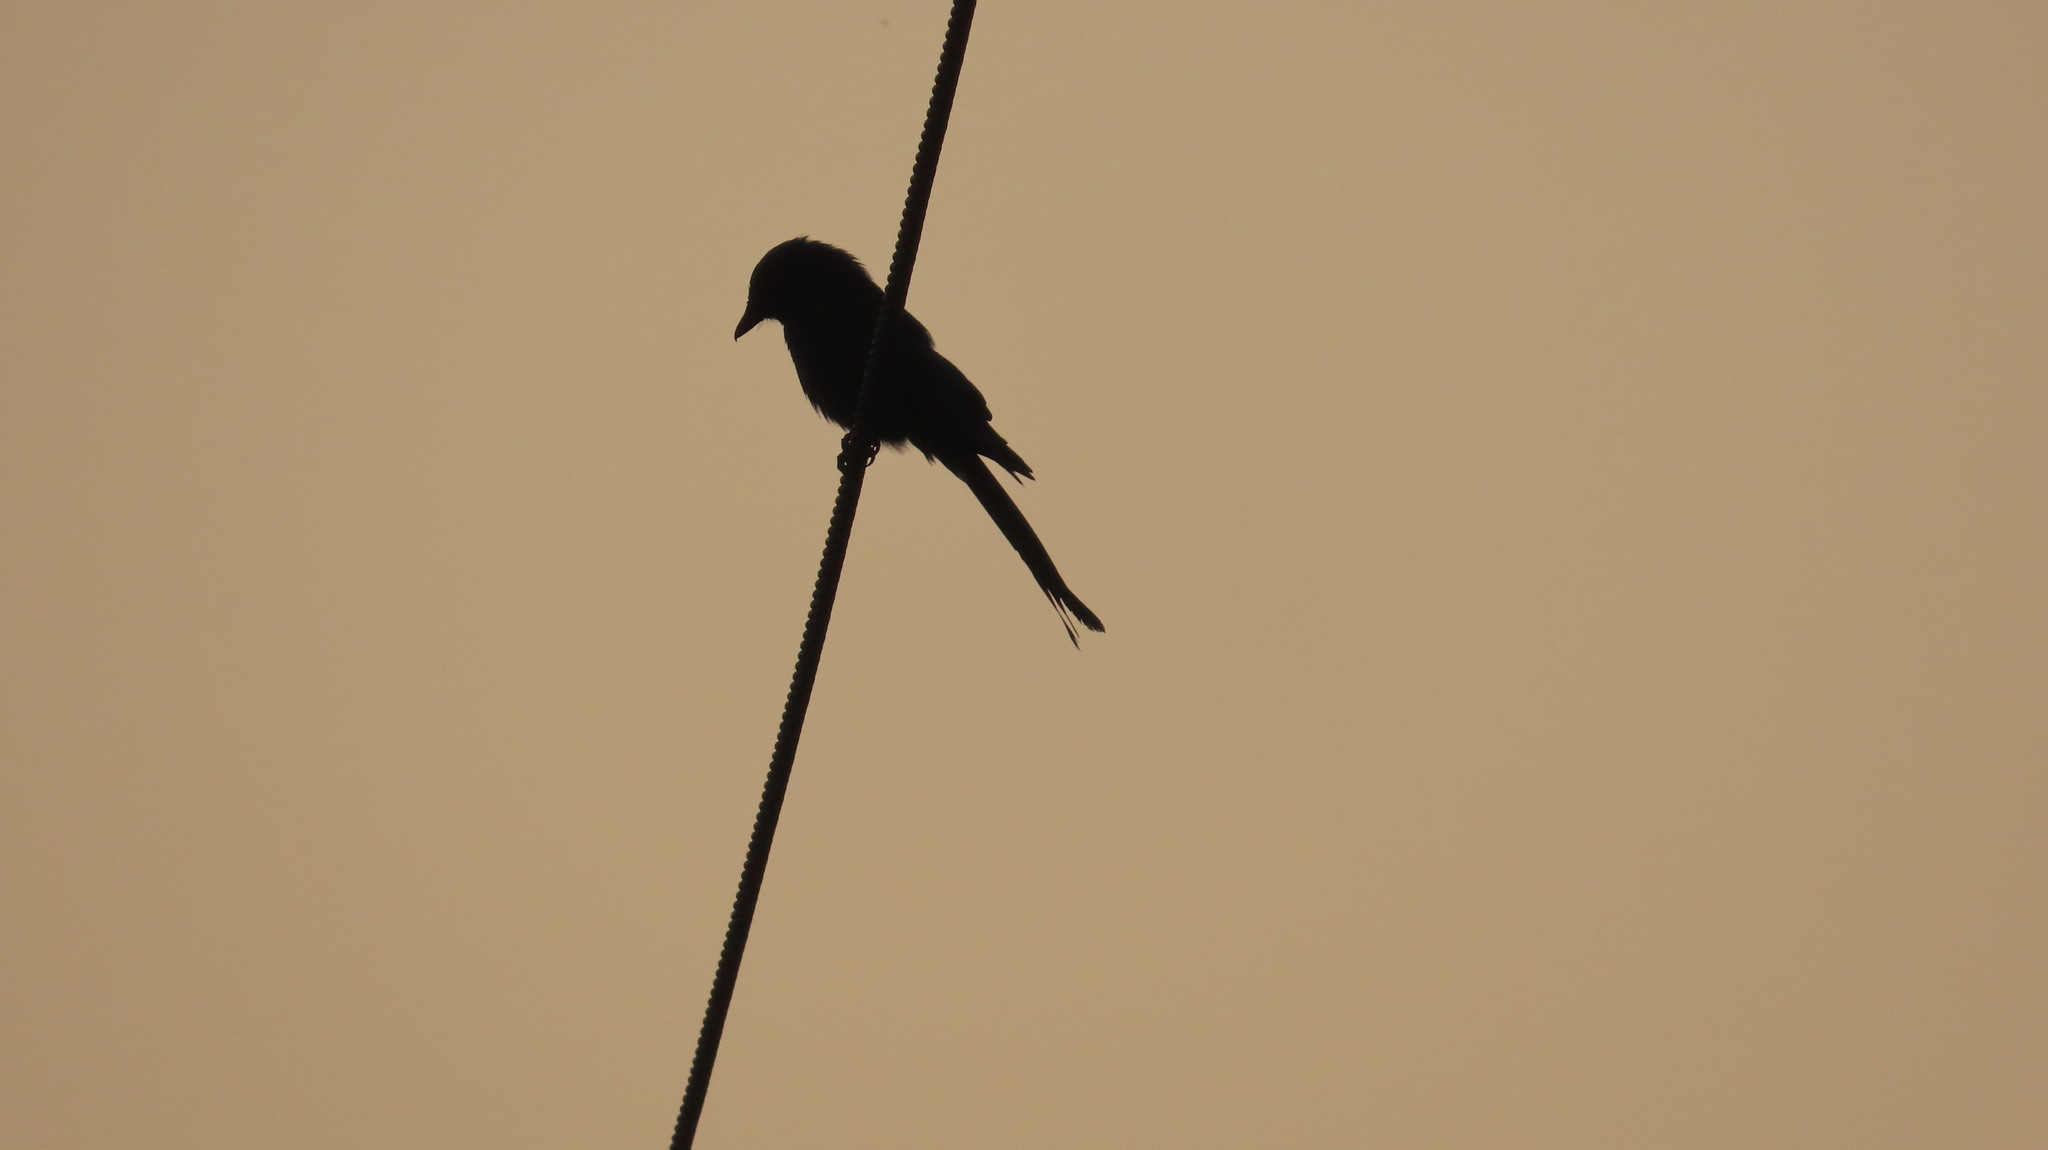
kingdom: Animalia
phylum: Chordata
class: Aves
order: Passeriformes
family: Dicruridae
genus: Dicrurus
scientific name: Dicrurus macrocercus
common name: Black drongo
